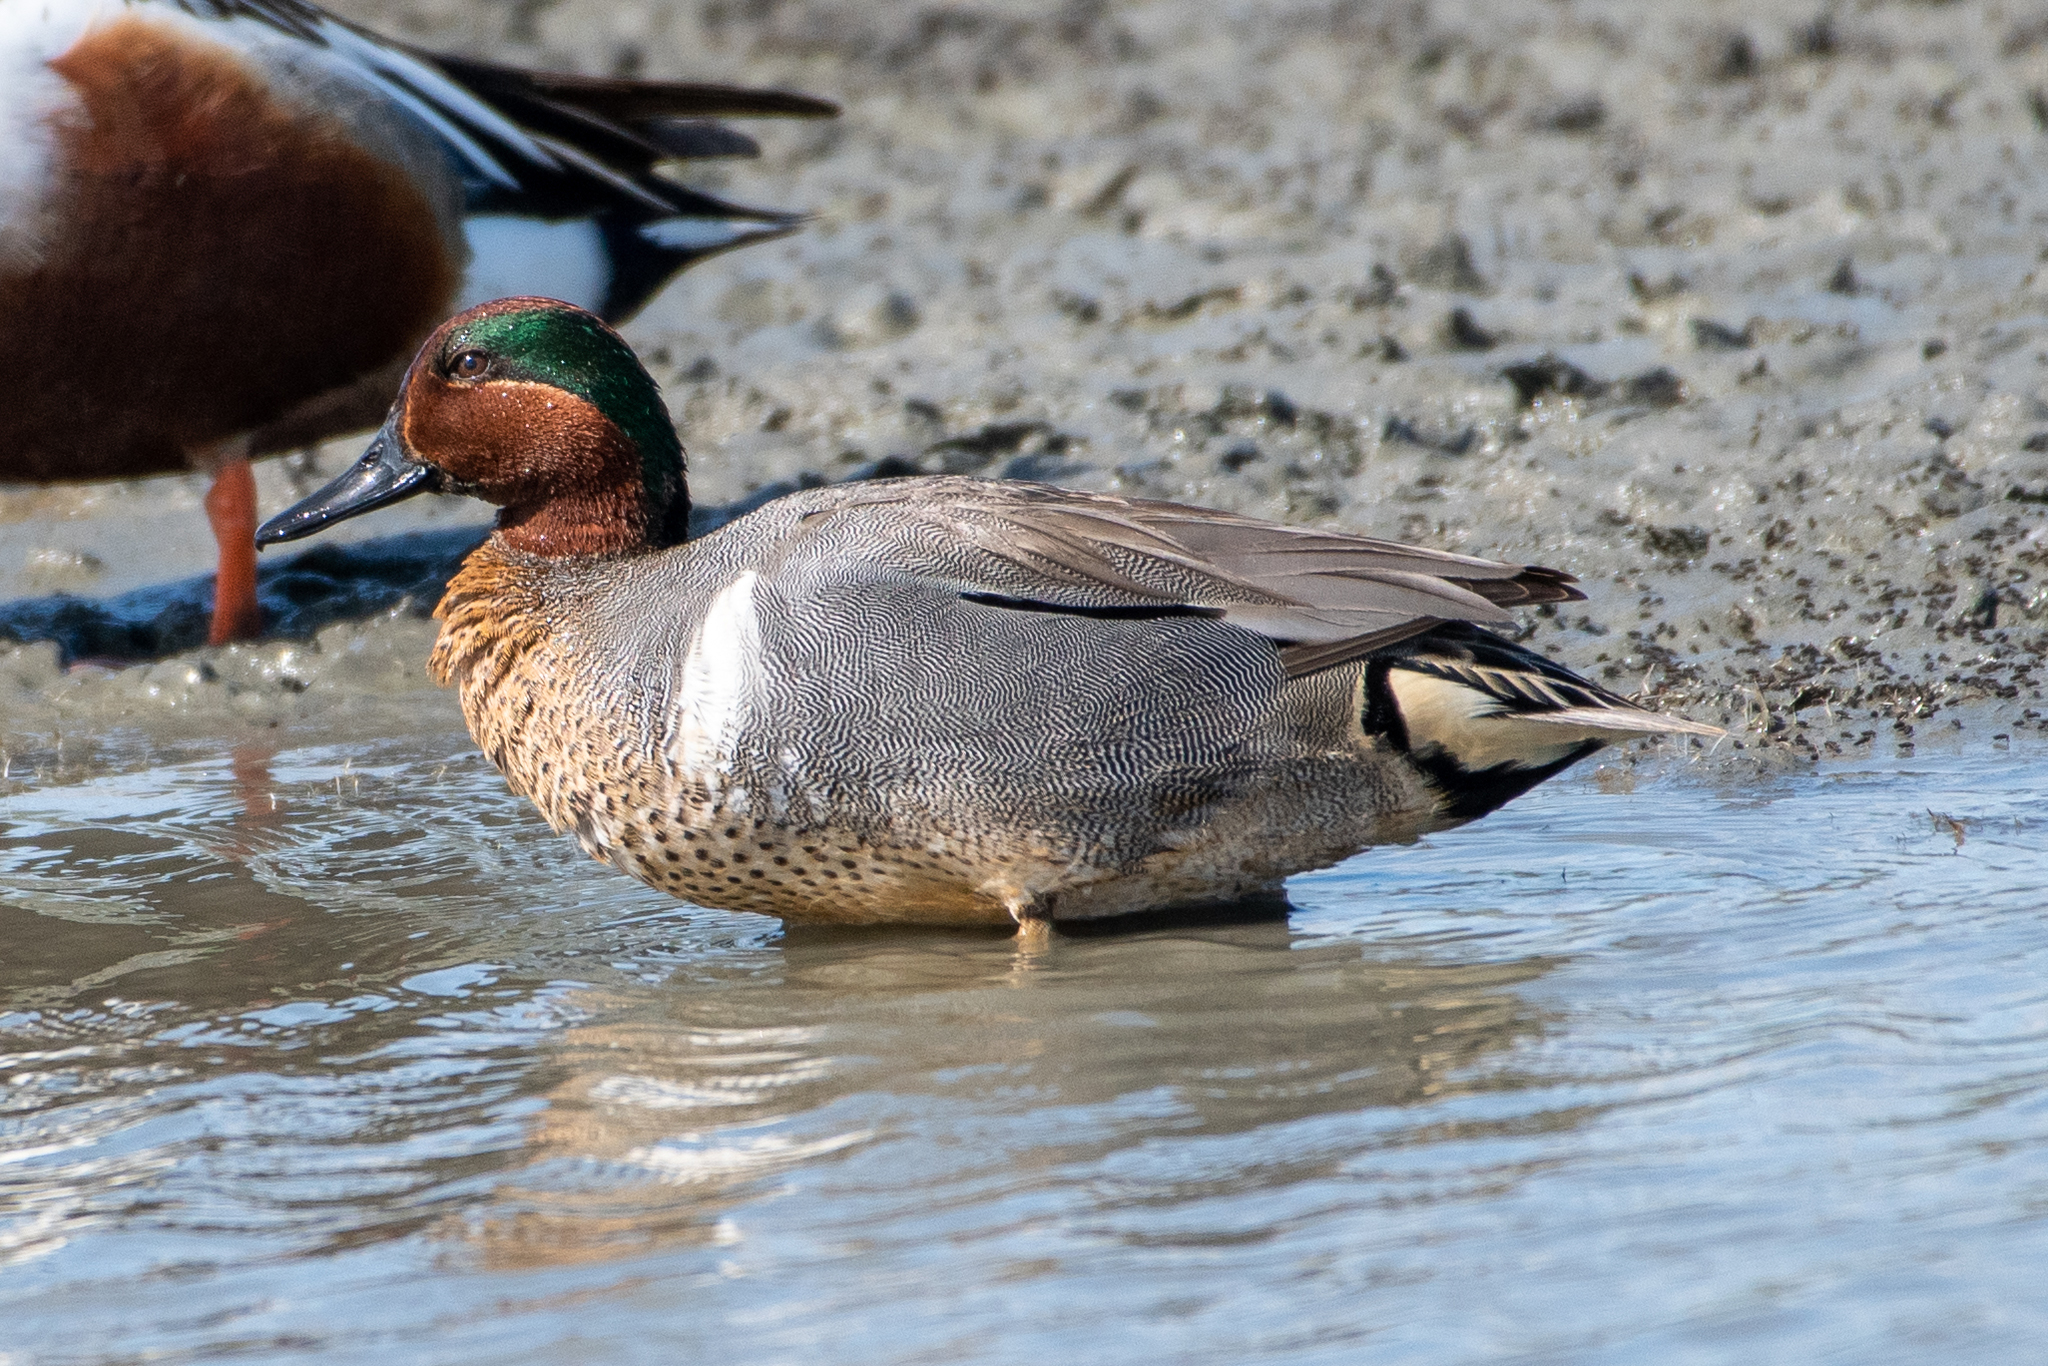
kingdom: Animalia
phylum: Chordata
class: Aves
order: Anseriformes
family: Anatidae
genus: Anas
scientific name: Anas crecca
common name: Eurasian teal
